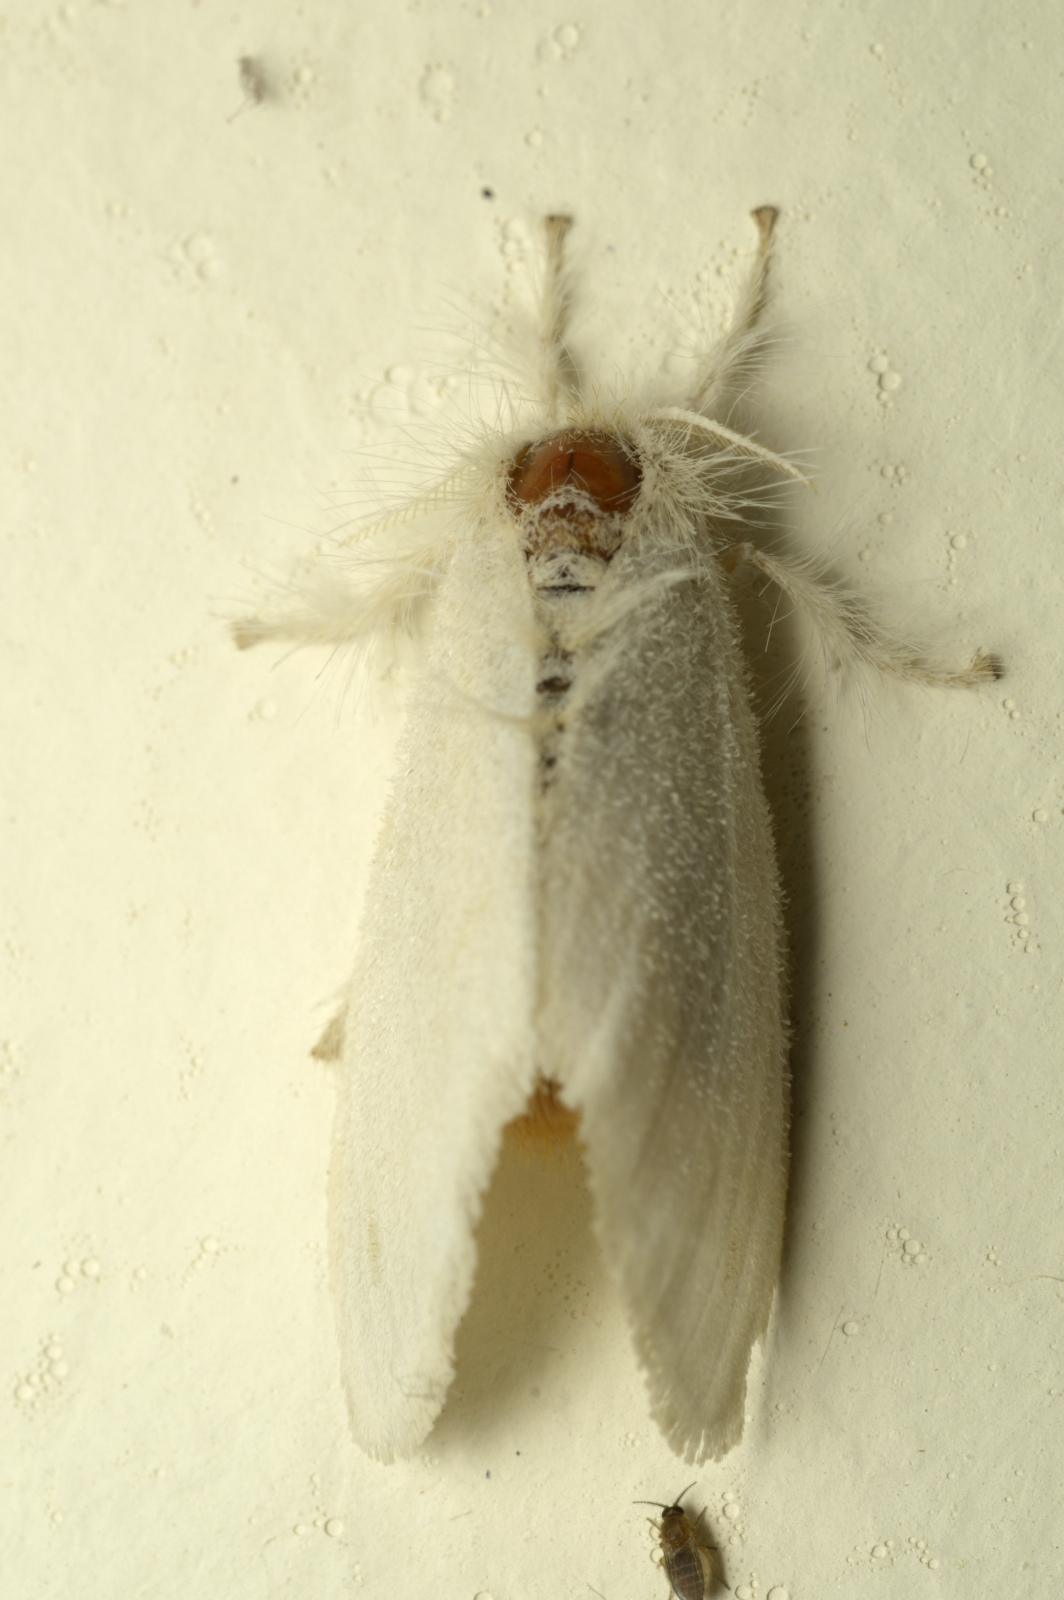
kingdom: Animalia
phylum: Arthropoda
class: Insecta
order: Lepidoptera
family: Erebidae
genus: Sphrageidus
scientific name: Sphrageidus similis
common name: Yellow-tail
